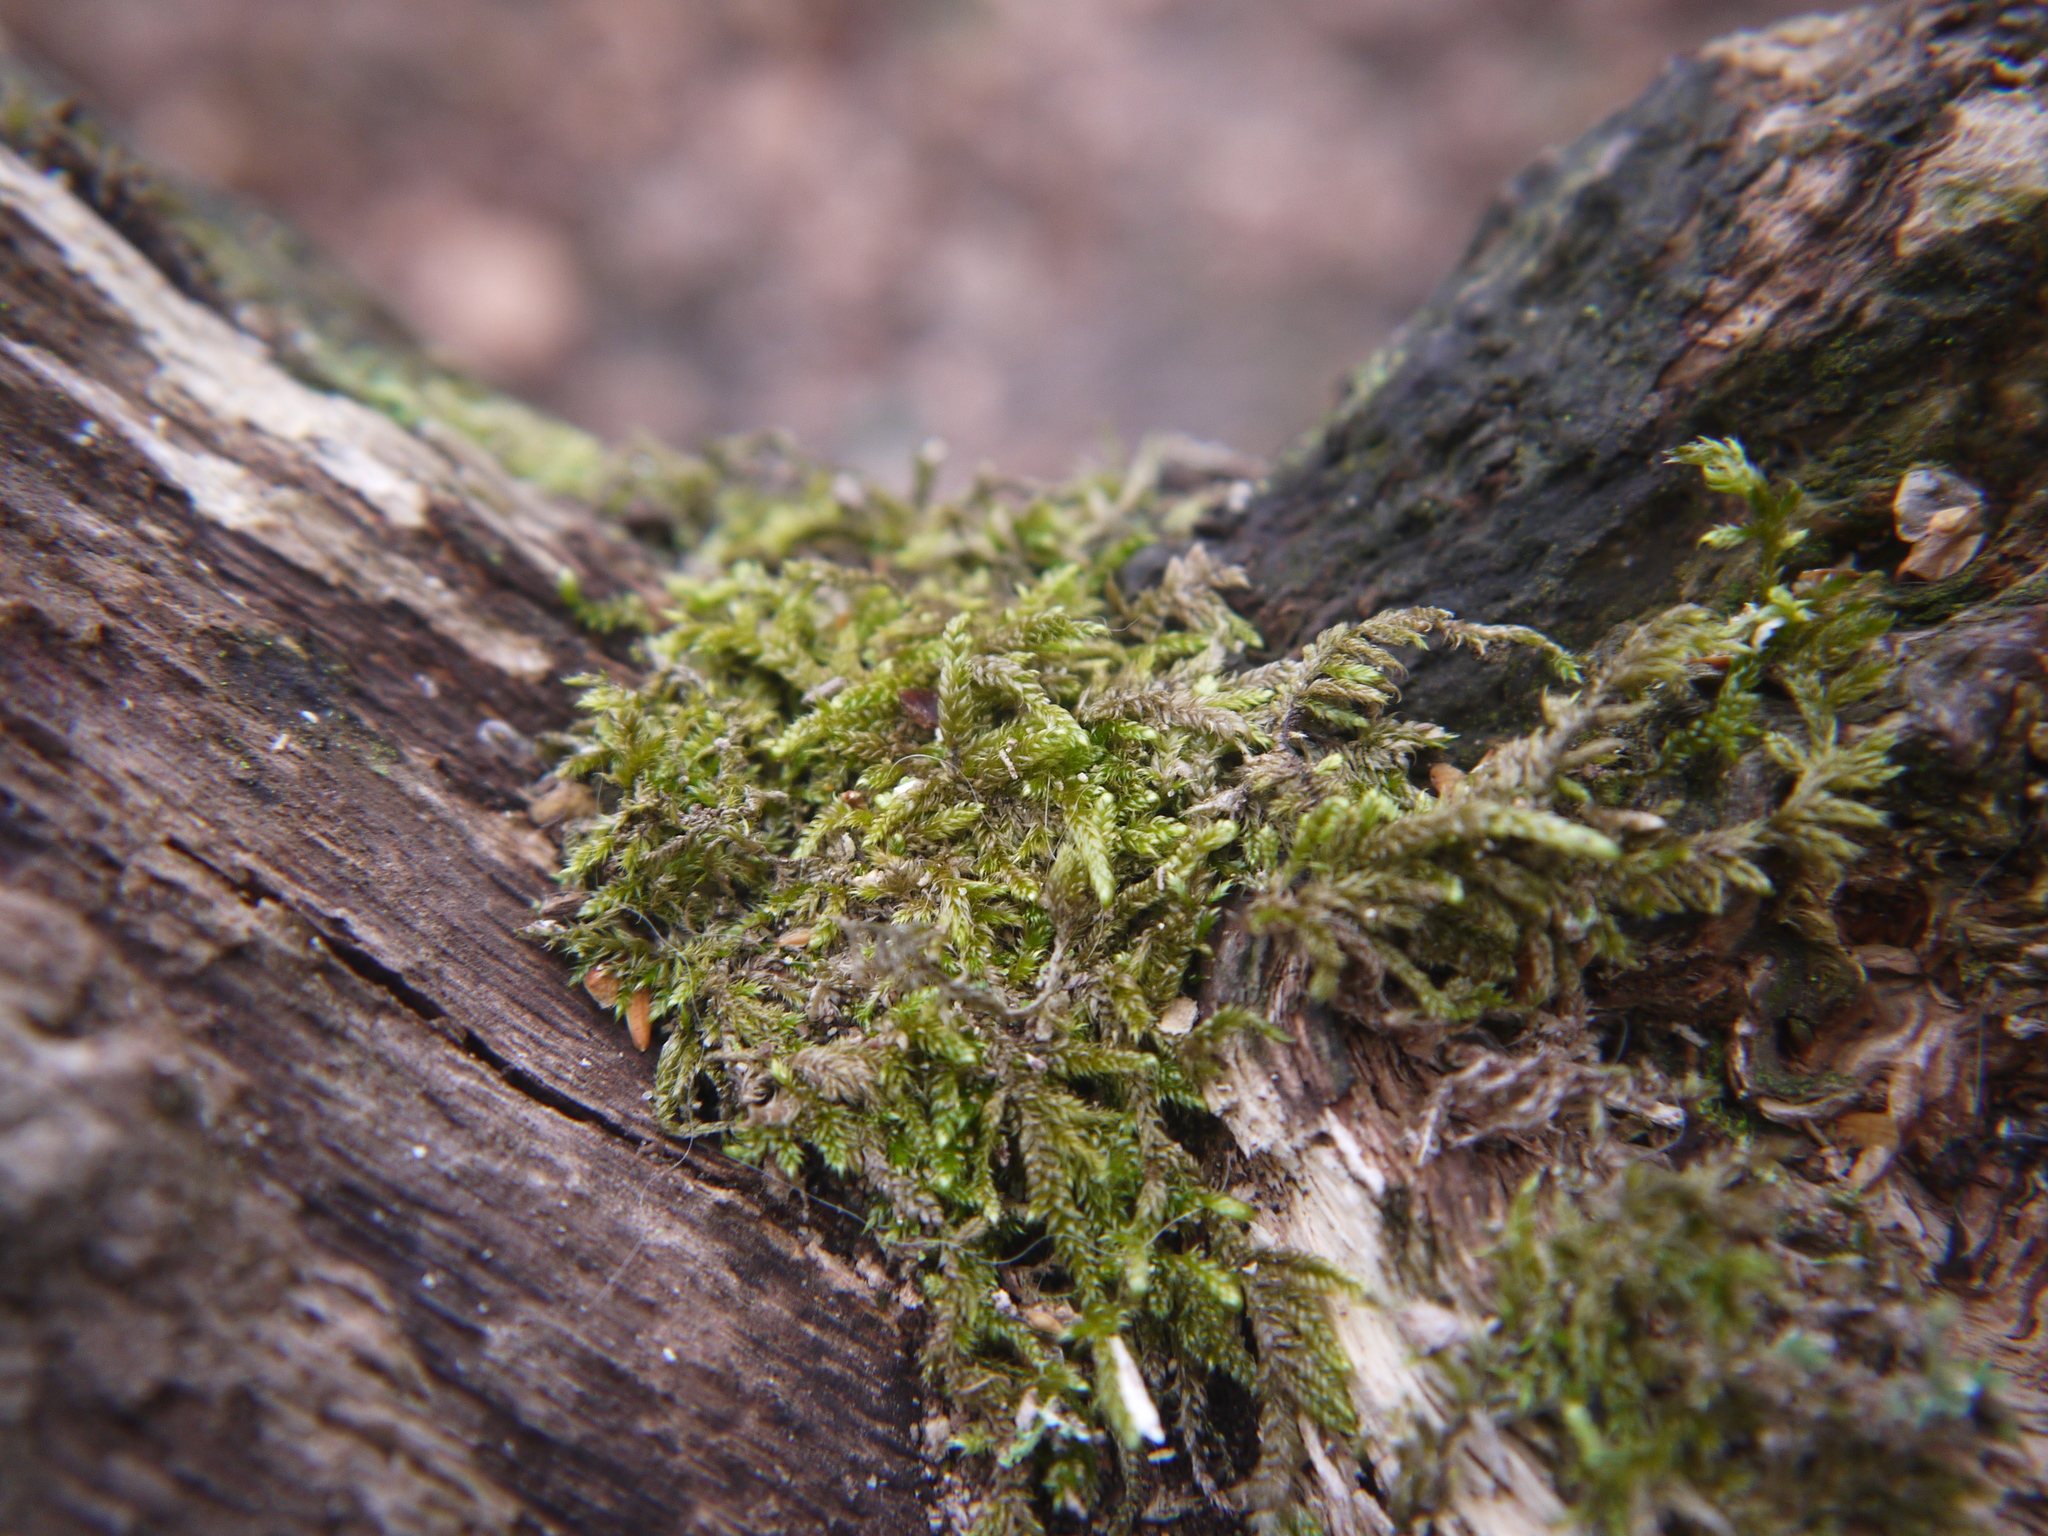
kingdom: Plantae
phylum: Bryophyta
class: Bryopsida
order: Hypnales
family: Hypnaceae
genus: Hypnum
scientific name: Hypnum cupressiforme
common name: Cypress-leaved plait-moss
